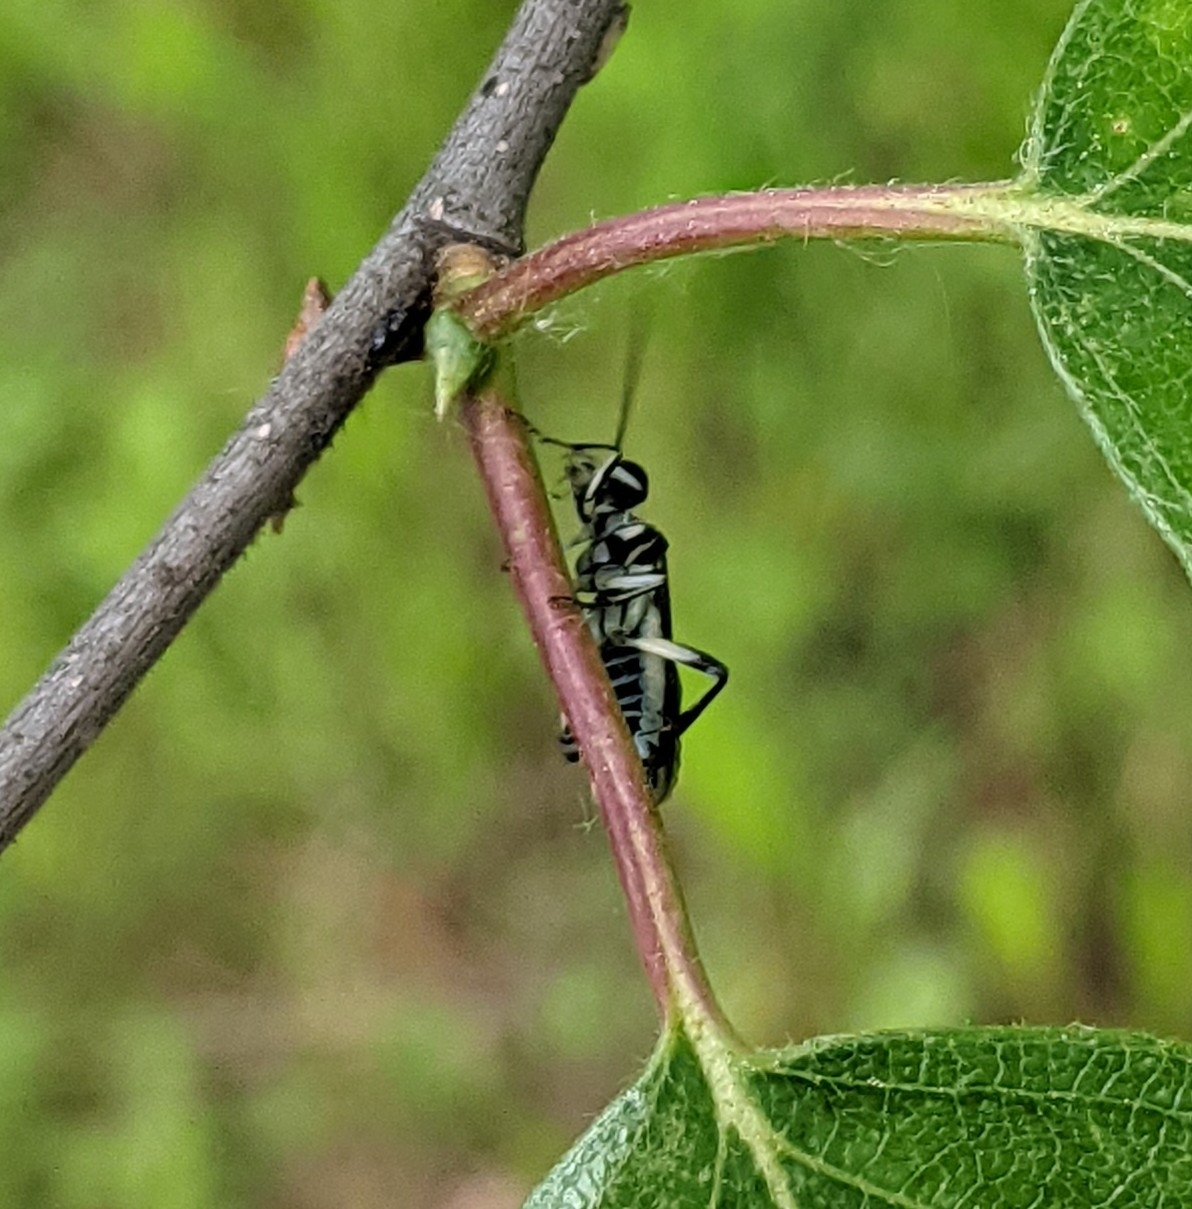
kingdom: Animalia
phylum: Arthropoda
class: Insecta
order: Hymenoptera
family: Tenthredinidae
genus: Pachyprotasis
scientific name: Pachyprotasis rapae
